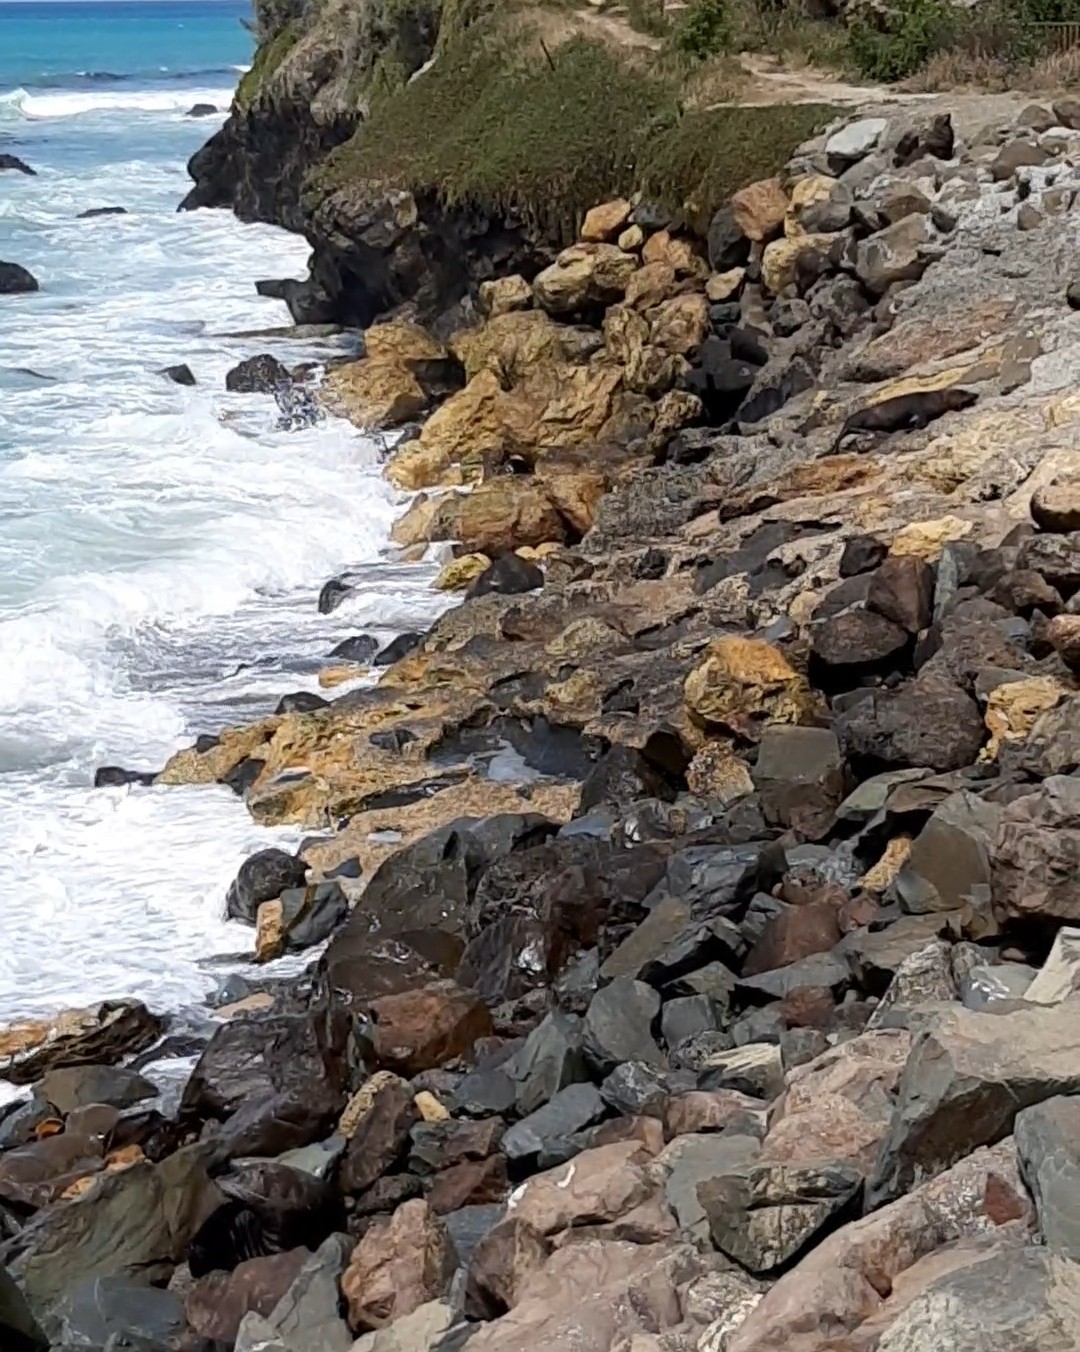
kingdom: Animalia
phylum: Chordata
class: Mammalia
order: Carnivora
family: Otariidae
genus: Arctocephalus
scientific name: Arctocephalus forsteri
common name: New zealand fur seal
